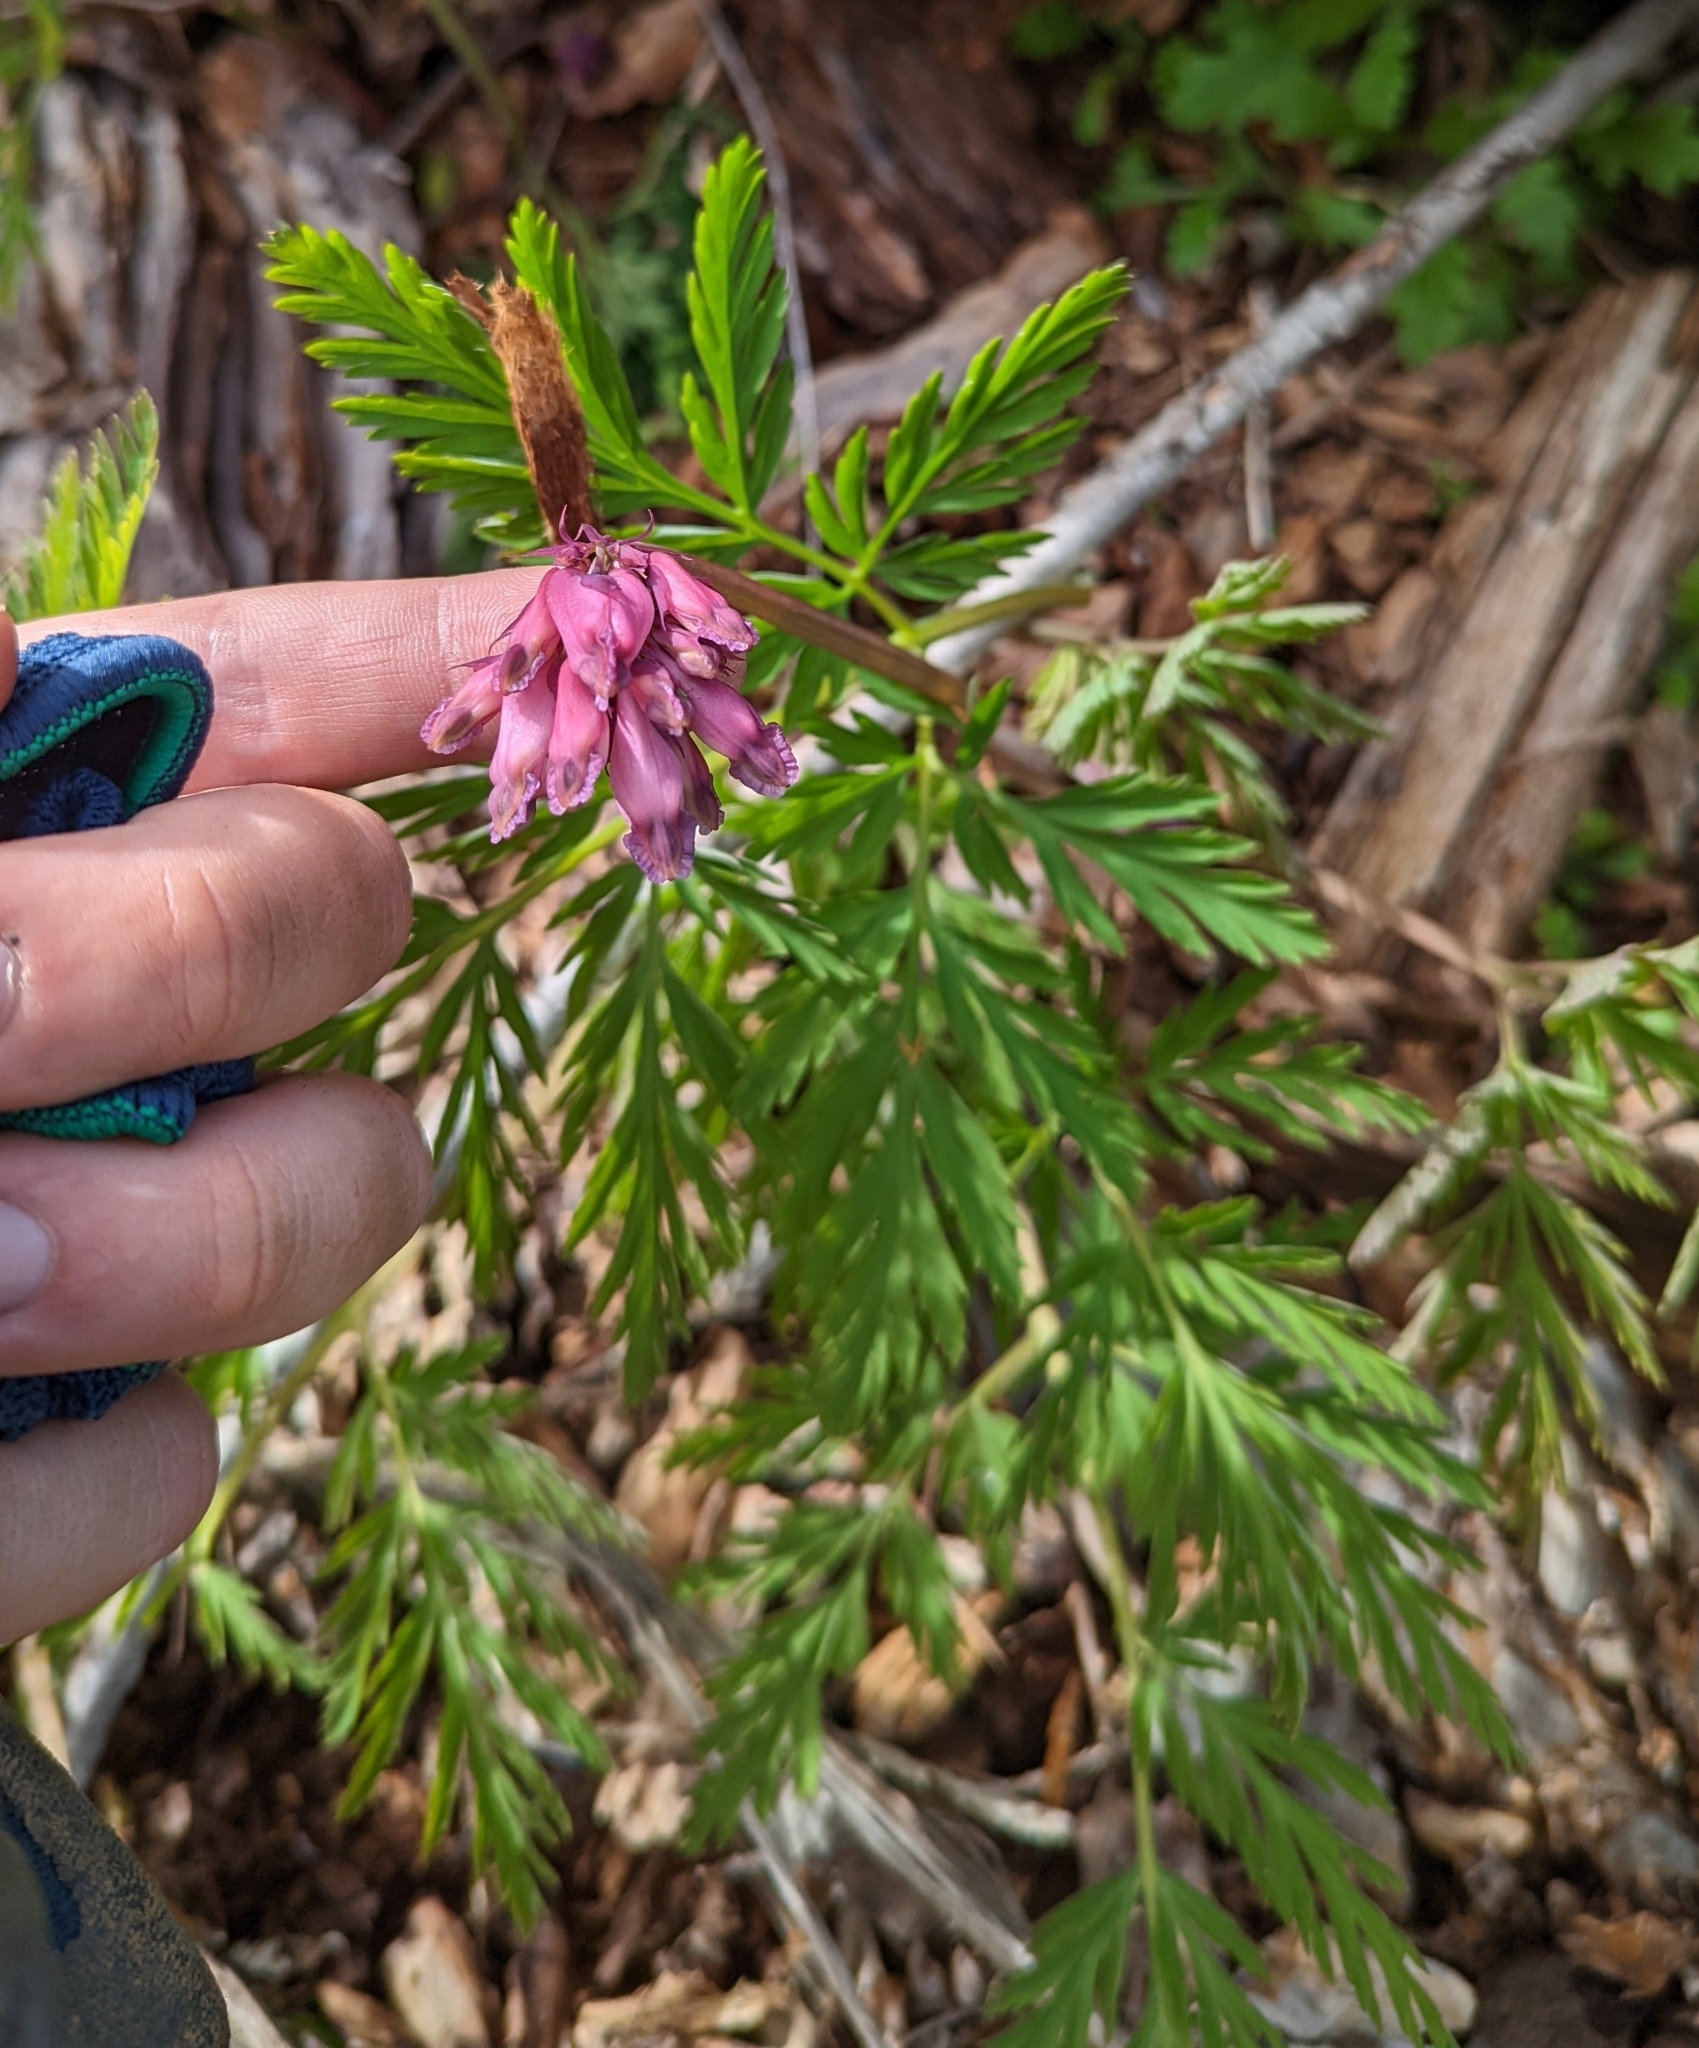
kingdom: Plantae
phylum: Tracheophyta
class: Magnoliopsida
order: Ranunculales
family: Papaveraceae
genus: Dicentra
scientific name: Dicentra formosa
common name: Bleeding-heart
